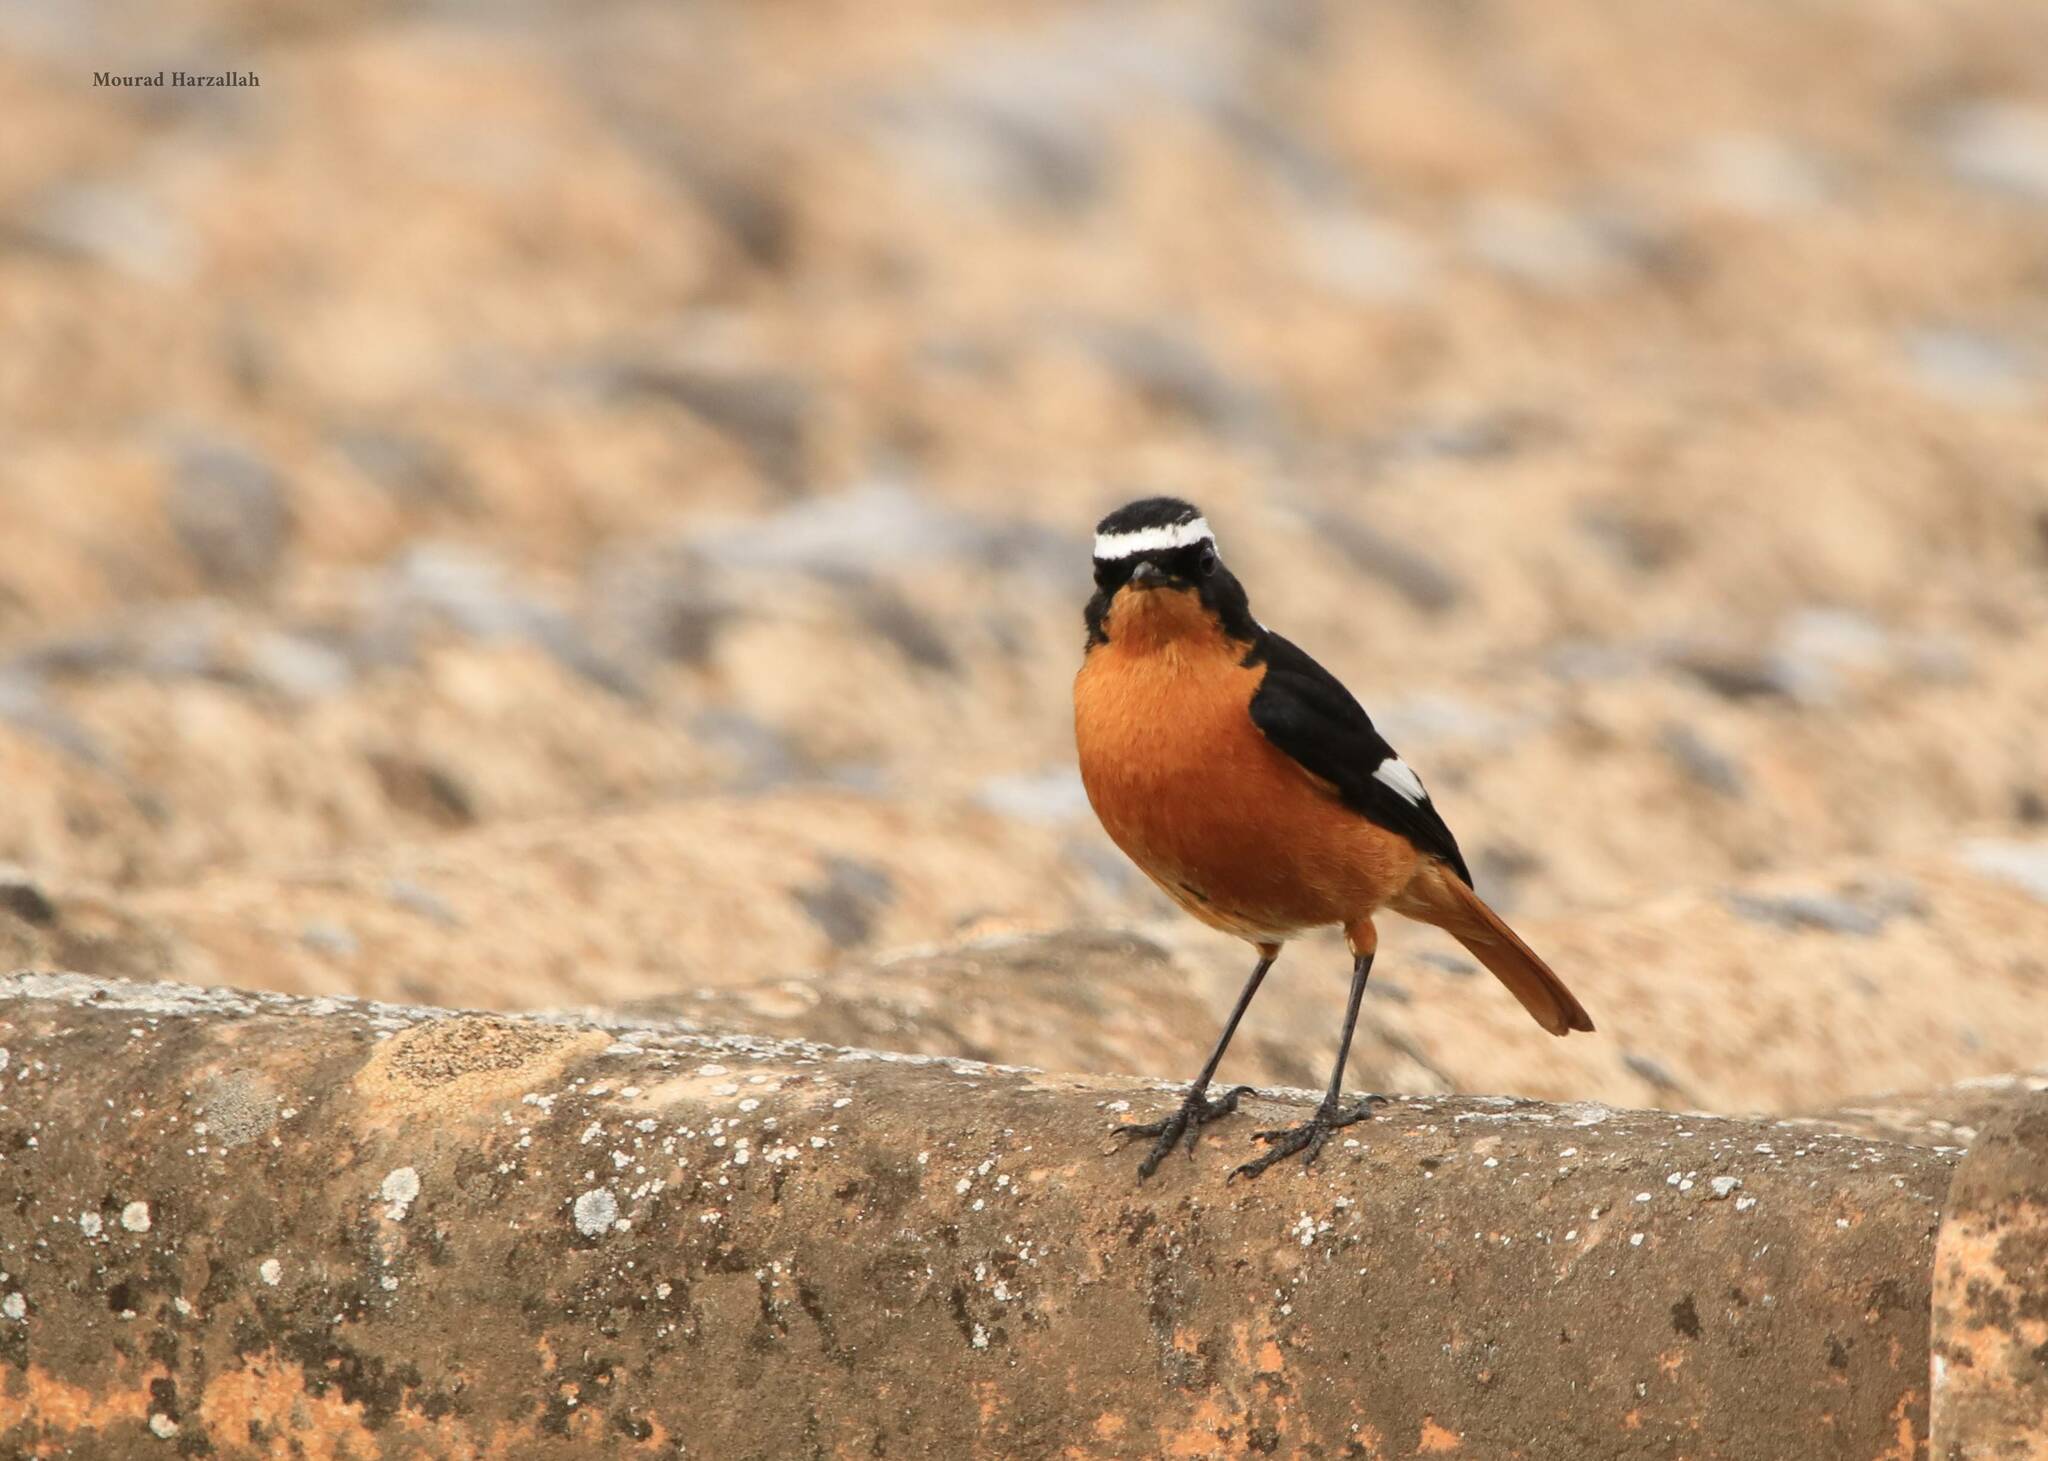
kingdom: Animalia
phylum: Chordata
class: Aves
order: Passeriformes
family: Muscicapidae
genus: Phoenicurus
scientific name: Phoenicurus moussieri
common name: Moussier's redstart
